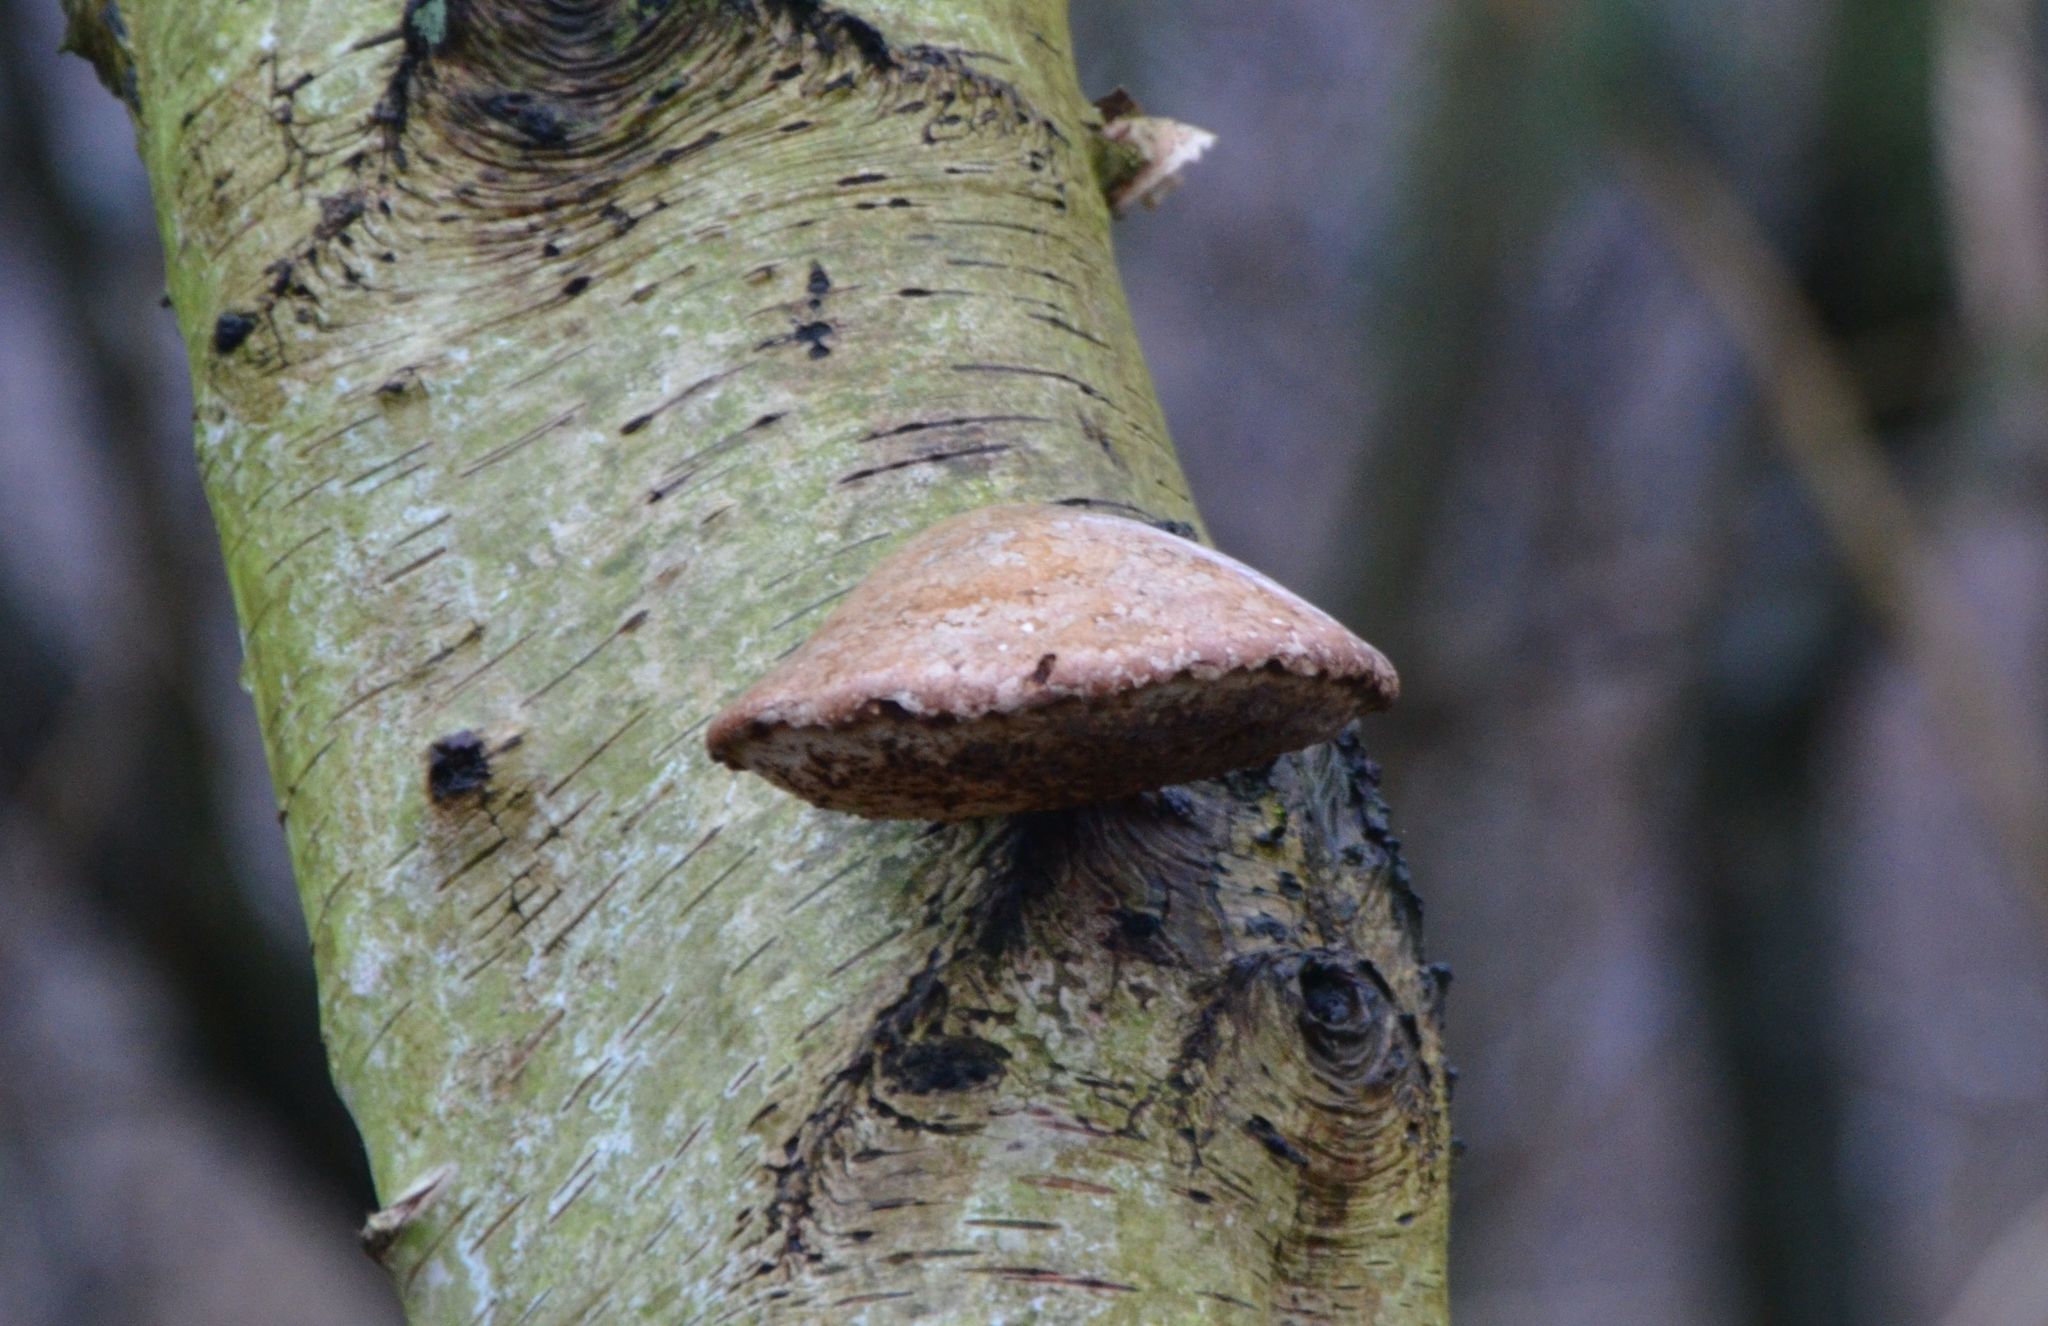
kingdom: Fungi
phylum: Basidiomycota
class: Agaricomycetes
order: Polyporales
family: Fomitopsidaceae
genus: Fomitopsis
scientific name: Fomitopsis betulina
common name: Birch polypore
